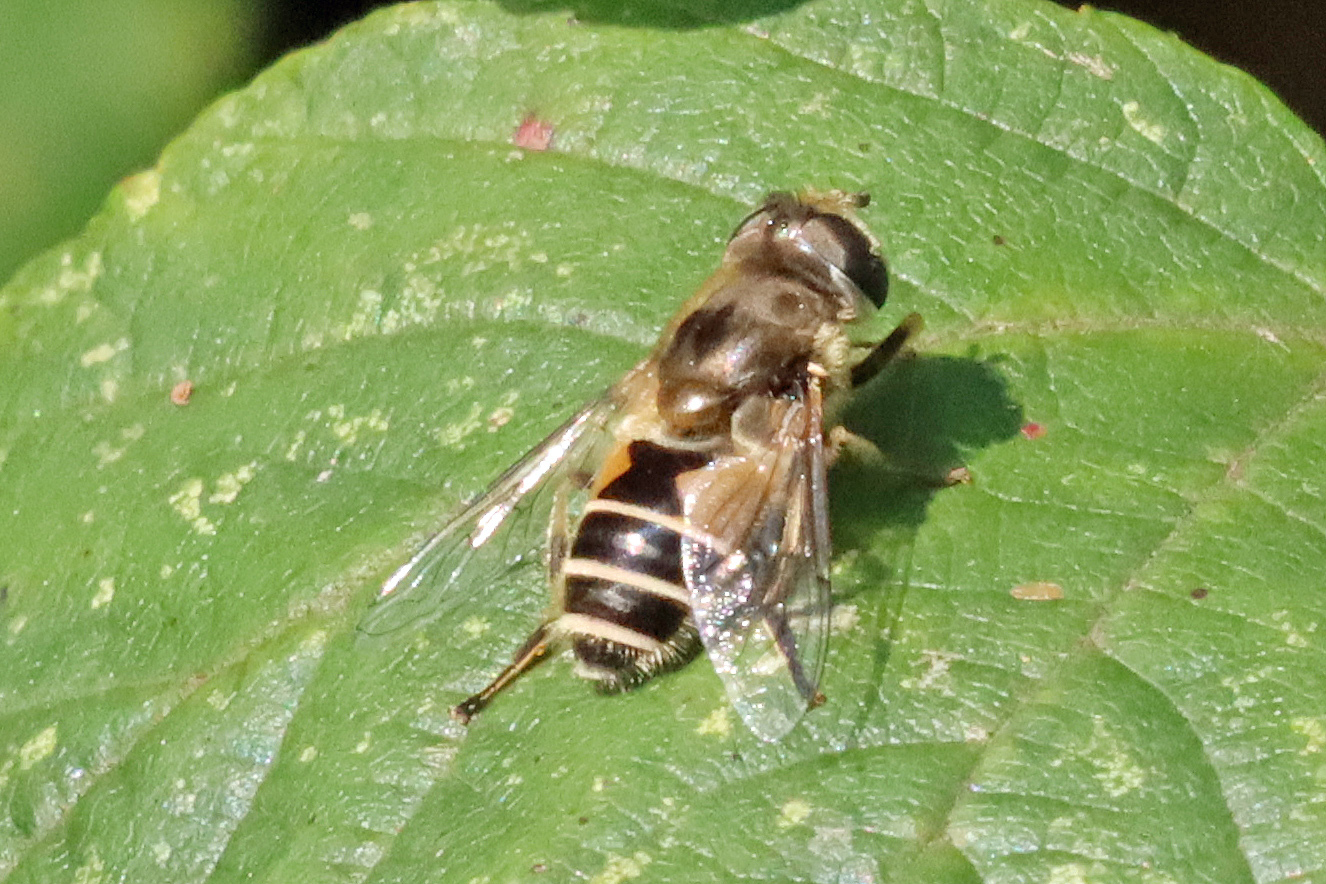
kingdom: Animalia
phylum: Arthropoda
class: Insecta
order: Diptera
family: Syrphidae
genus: Eristalis
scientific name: Eristalis arbustorum
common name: Hover fly
